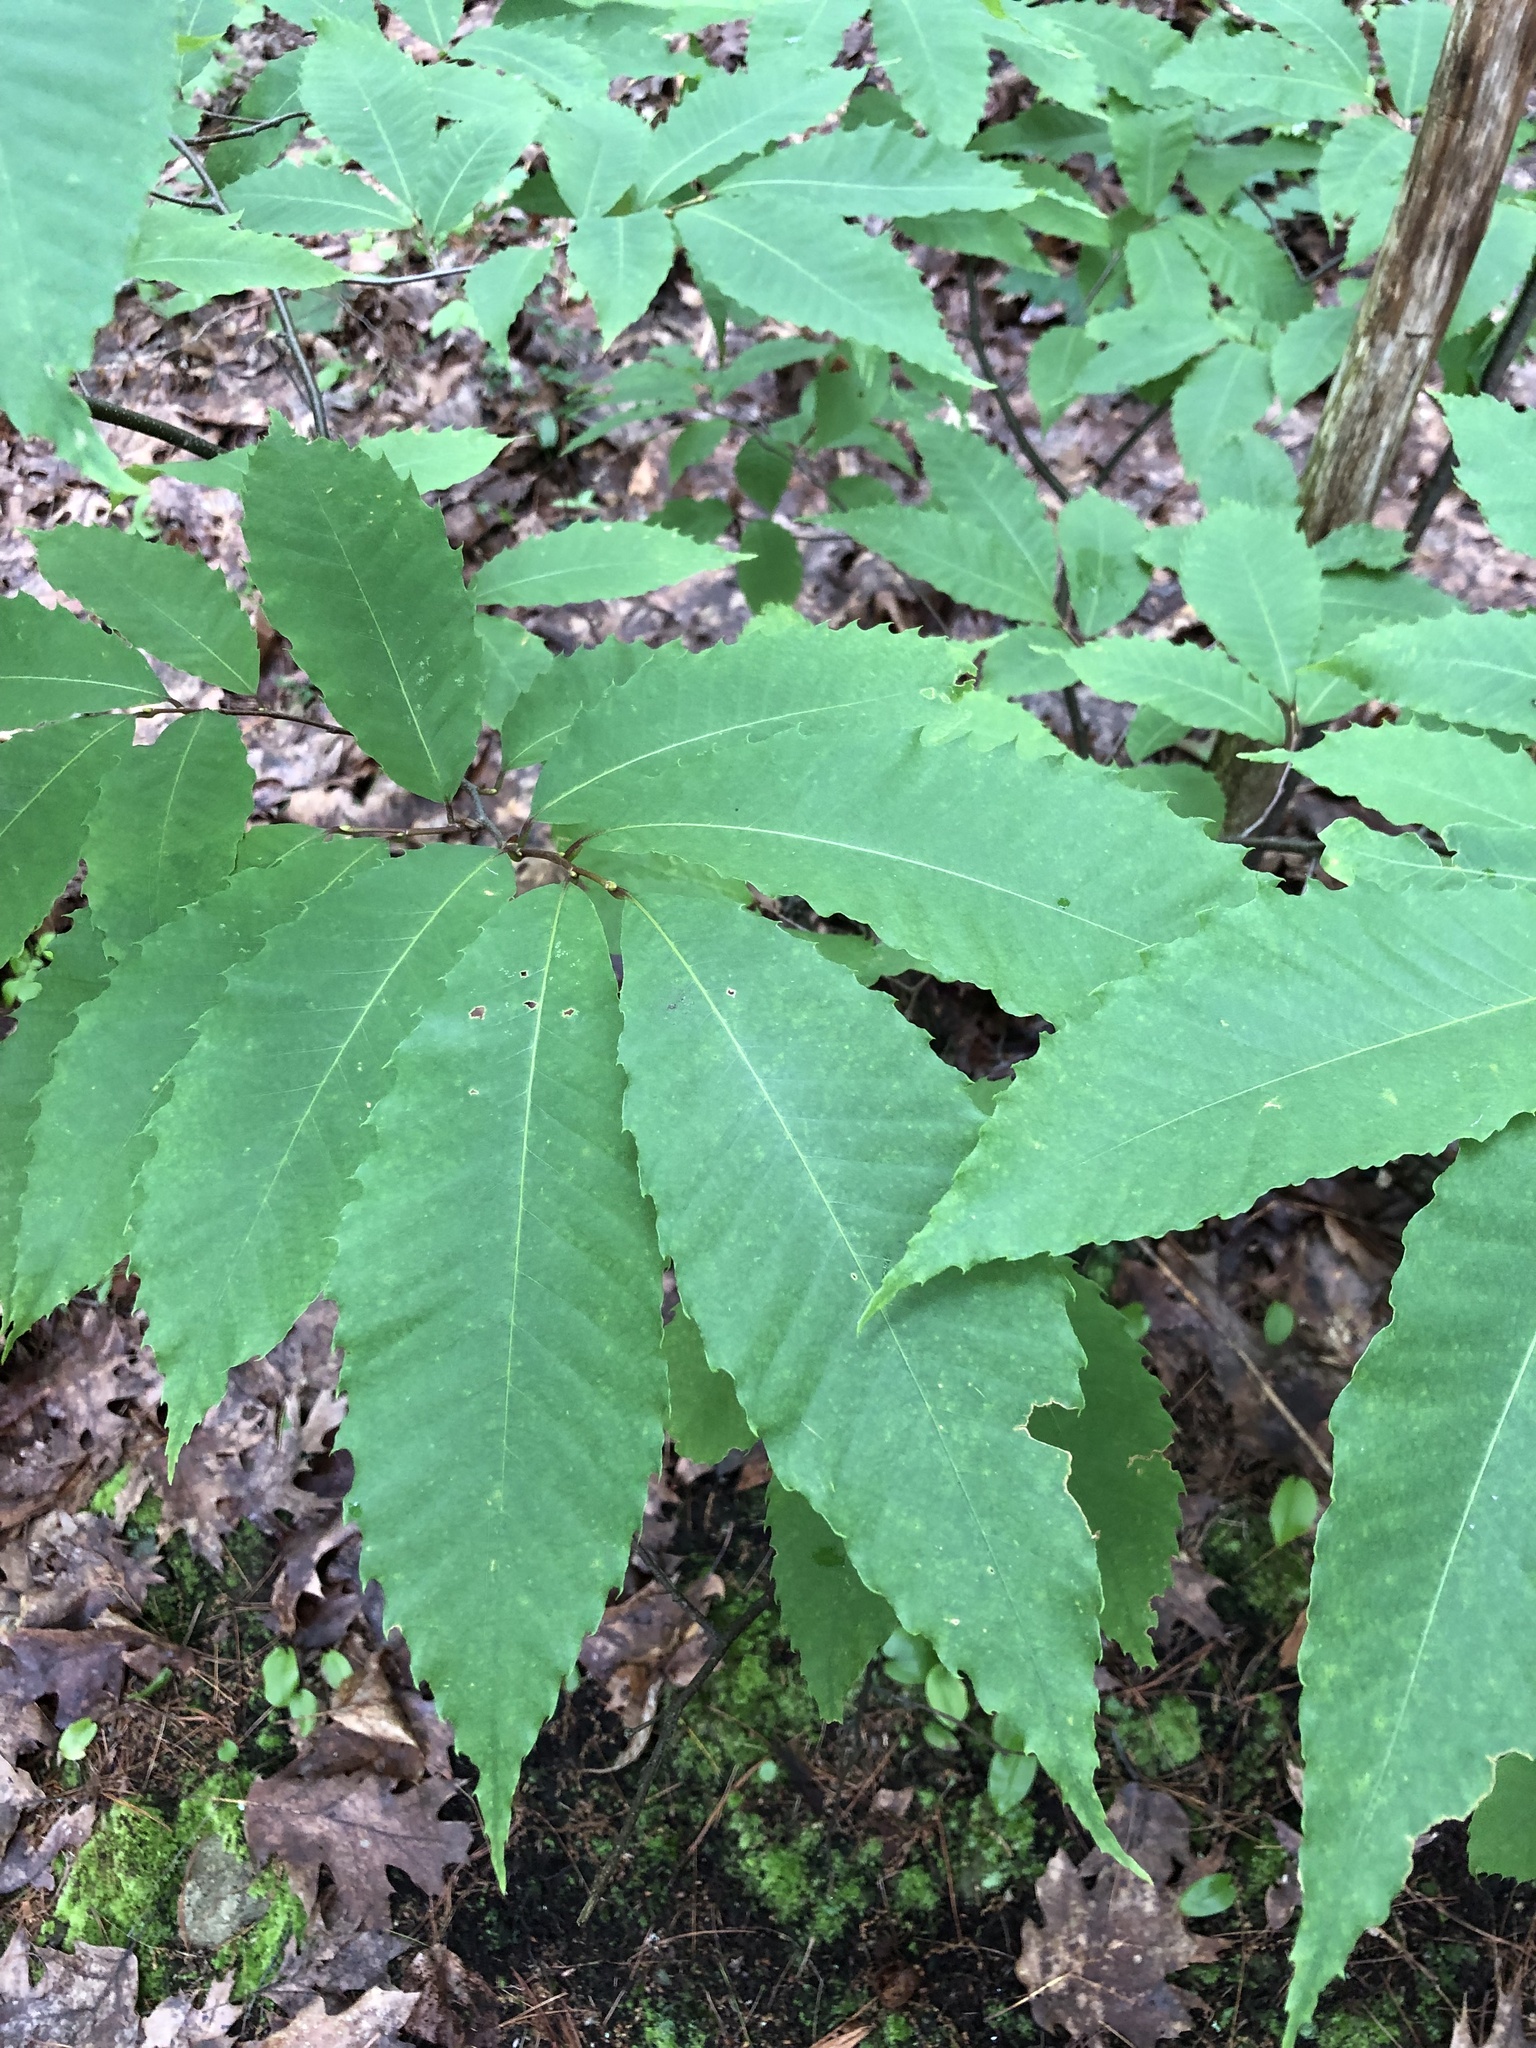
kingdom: Plantae
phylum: Tracheophyta
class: Magnoliopsida
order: Fagales
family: Fagaceae
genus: Castanea
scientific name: Castanea dentata
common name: American chestnut
